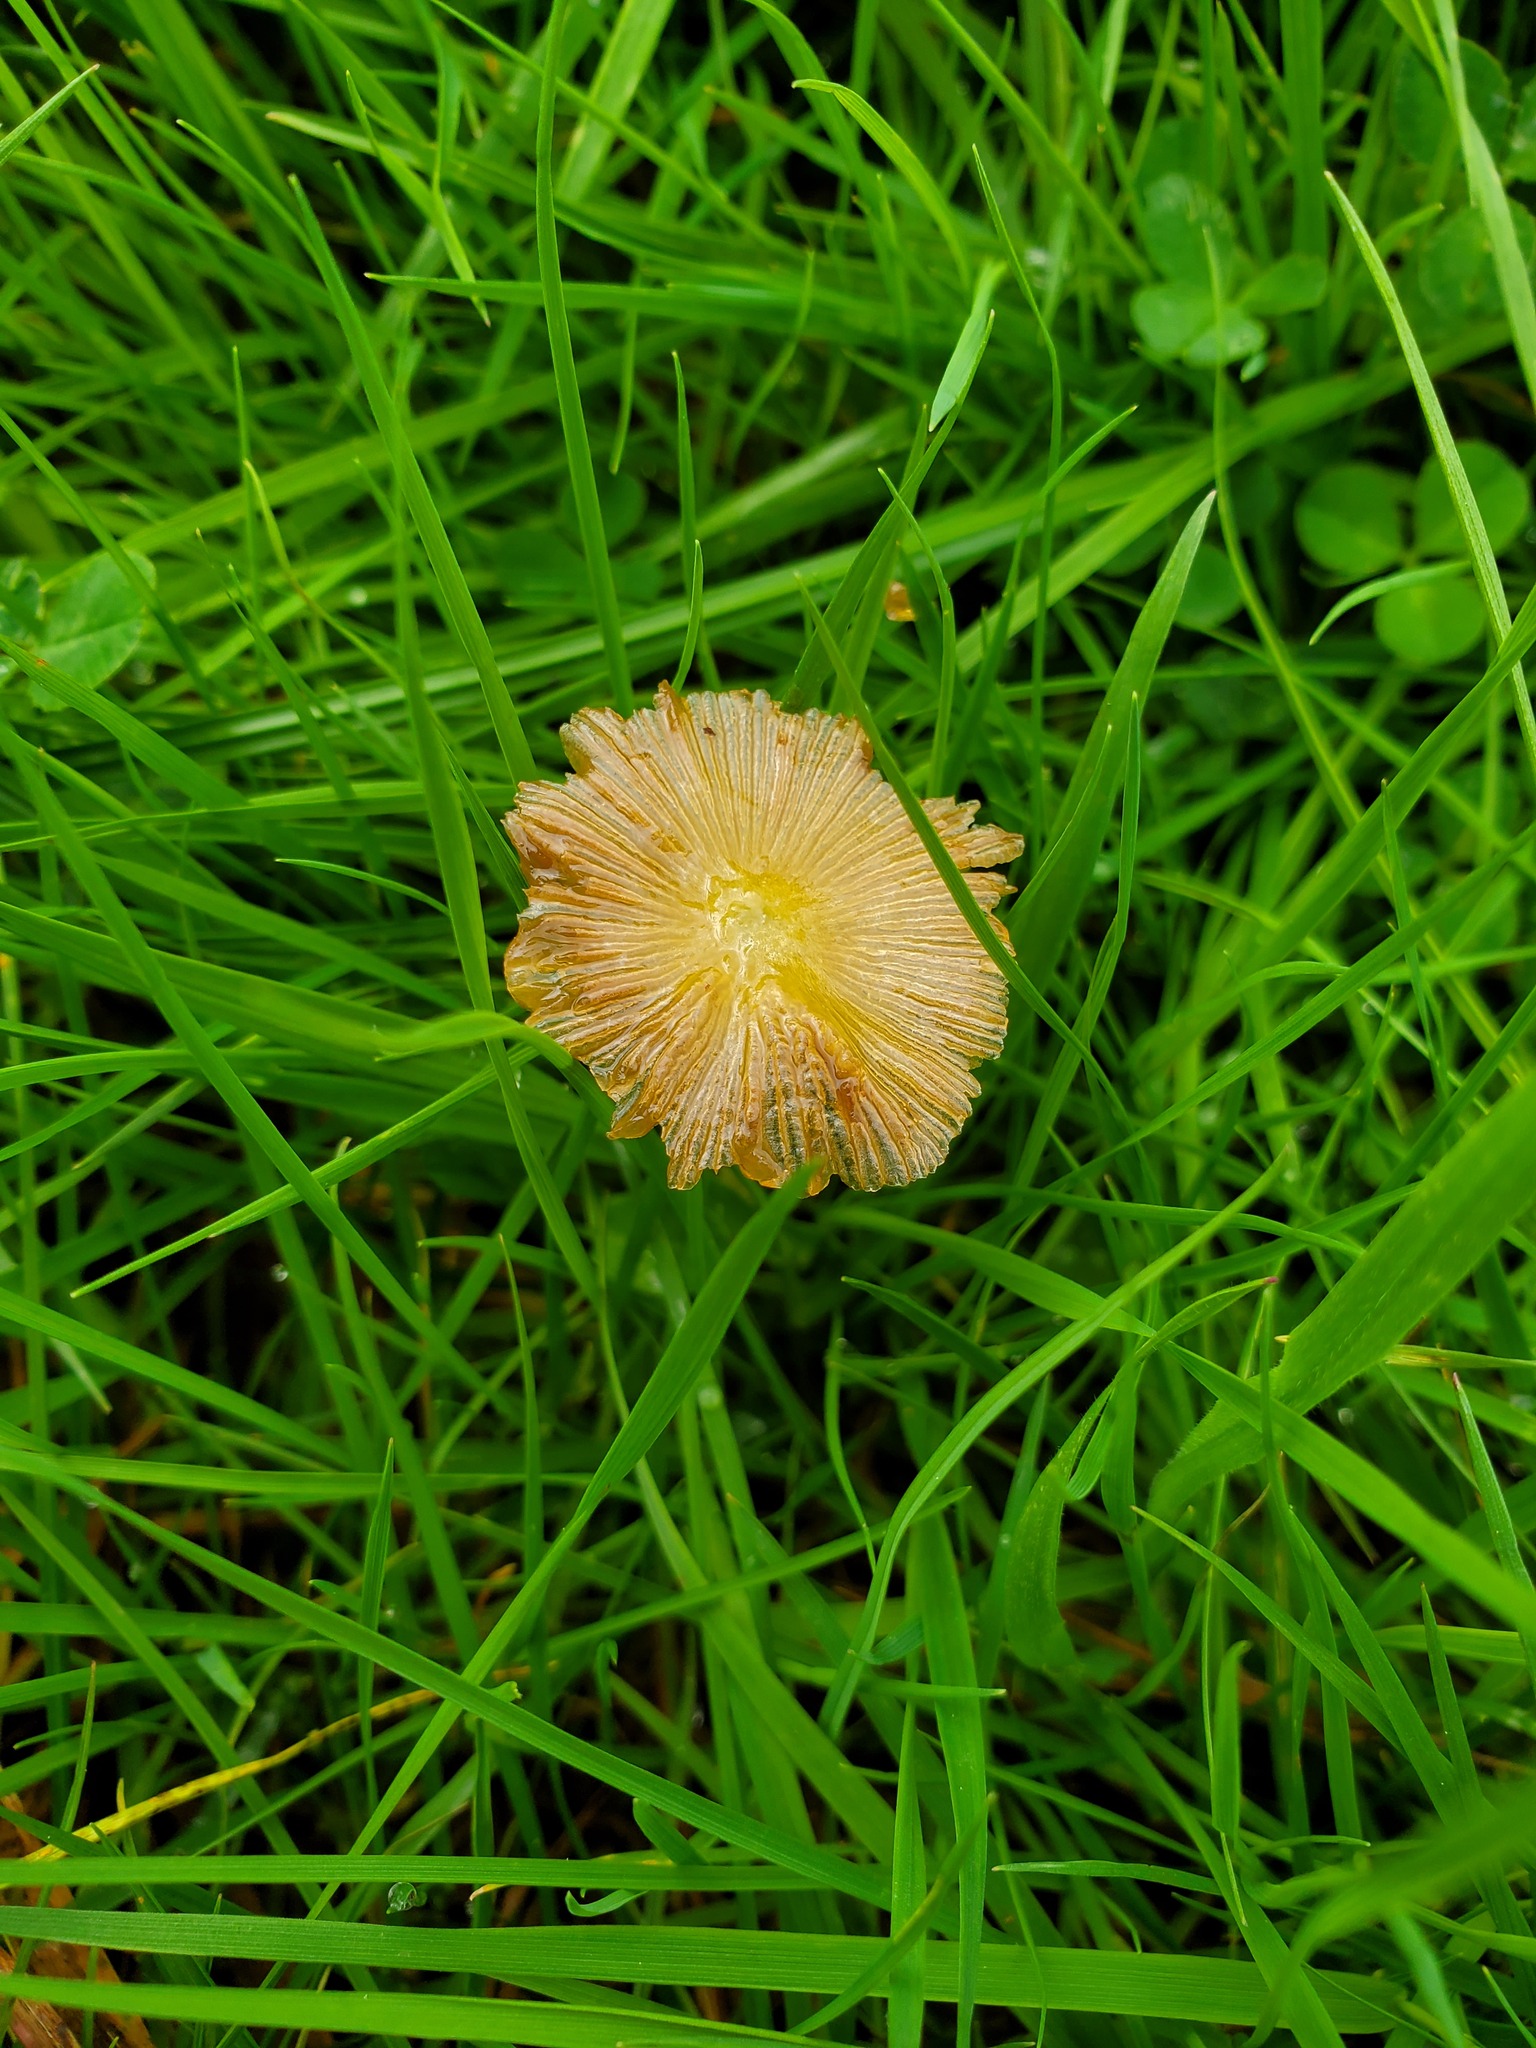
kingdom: Fungi
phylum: Basidiomycota
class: Agaricomycetes
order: Agaricales
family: Bolbitiaceae
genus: Bolbitius
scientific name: Bolbitius titubans
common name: Yellow fieldcap
